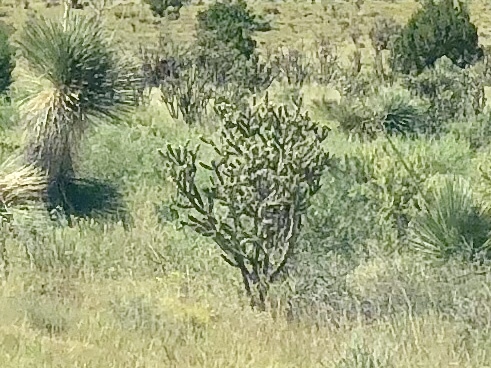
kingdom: Plantae
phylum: Tracheophyta
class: Magnoliopsida
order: Caryophyllales
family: Cactaceae
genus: Cylindropuntia
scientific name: Cylindropuntia imbricata
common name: Candelabrum cactus
